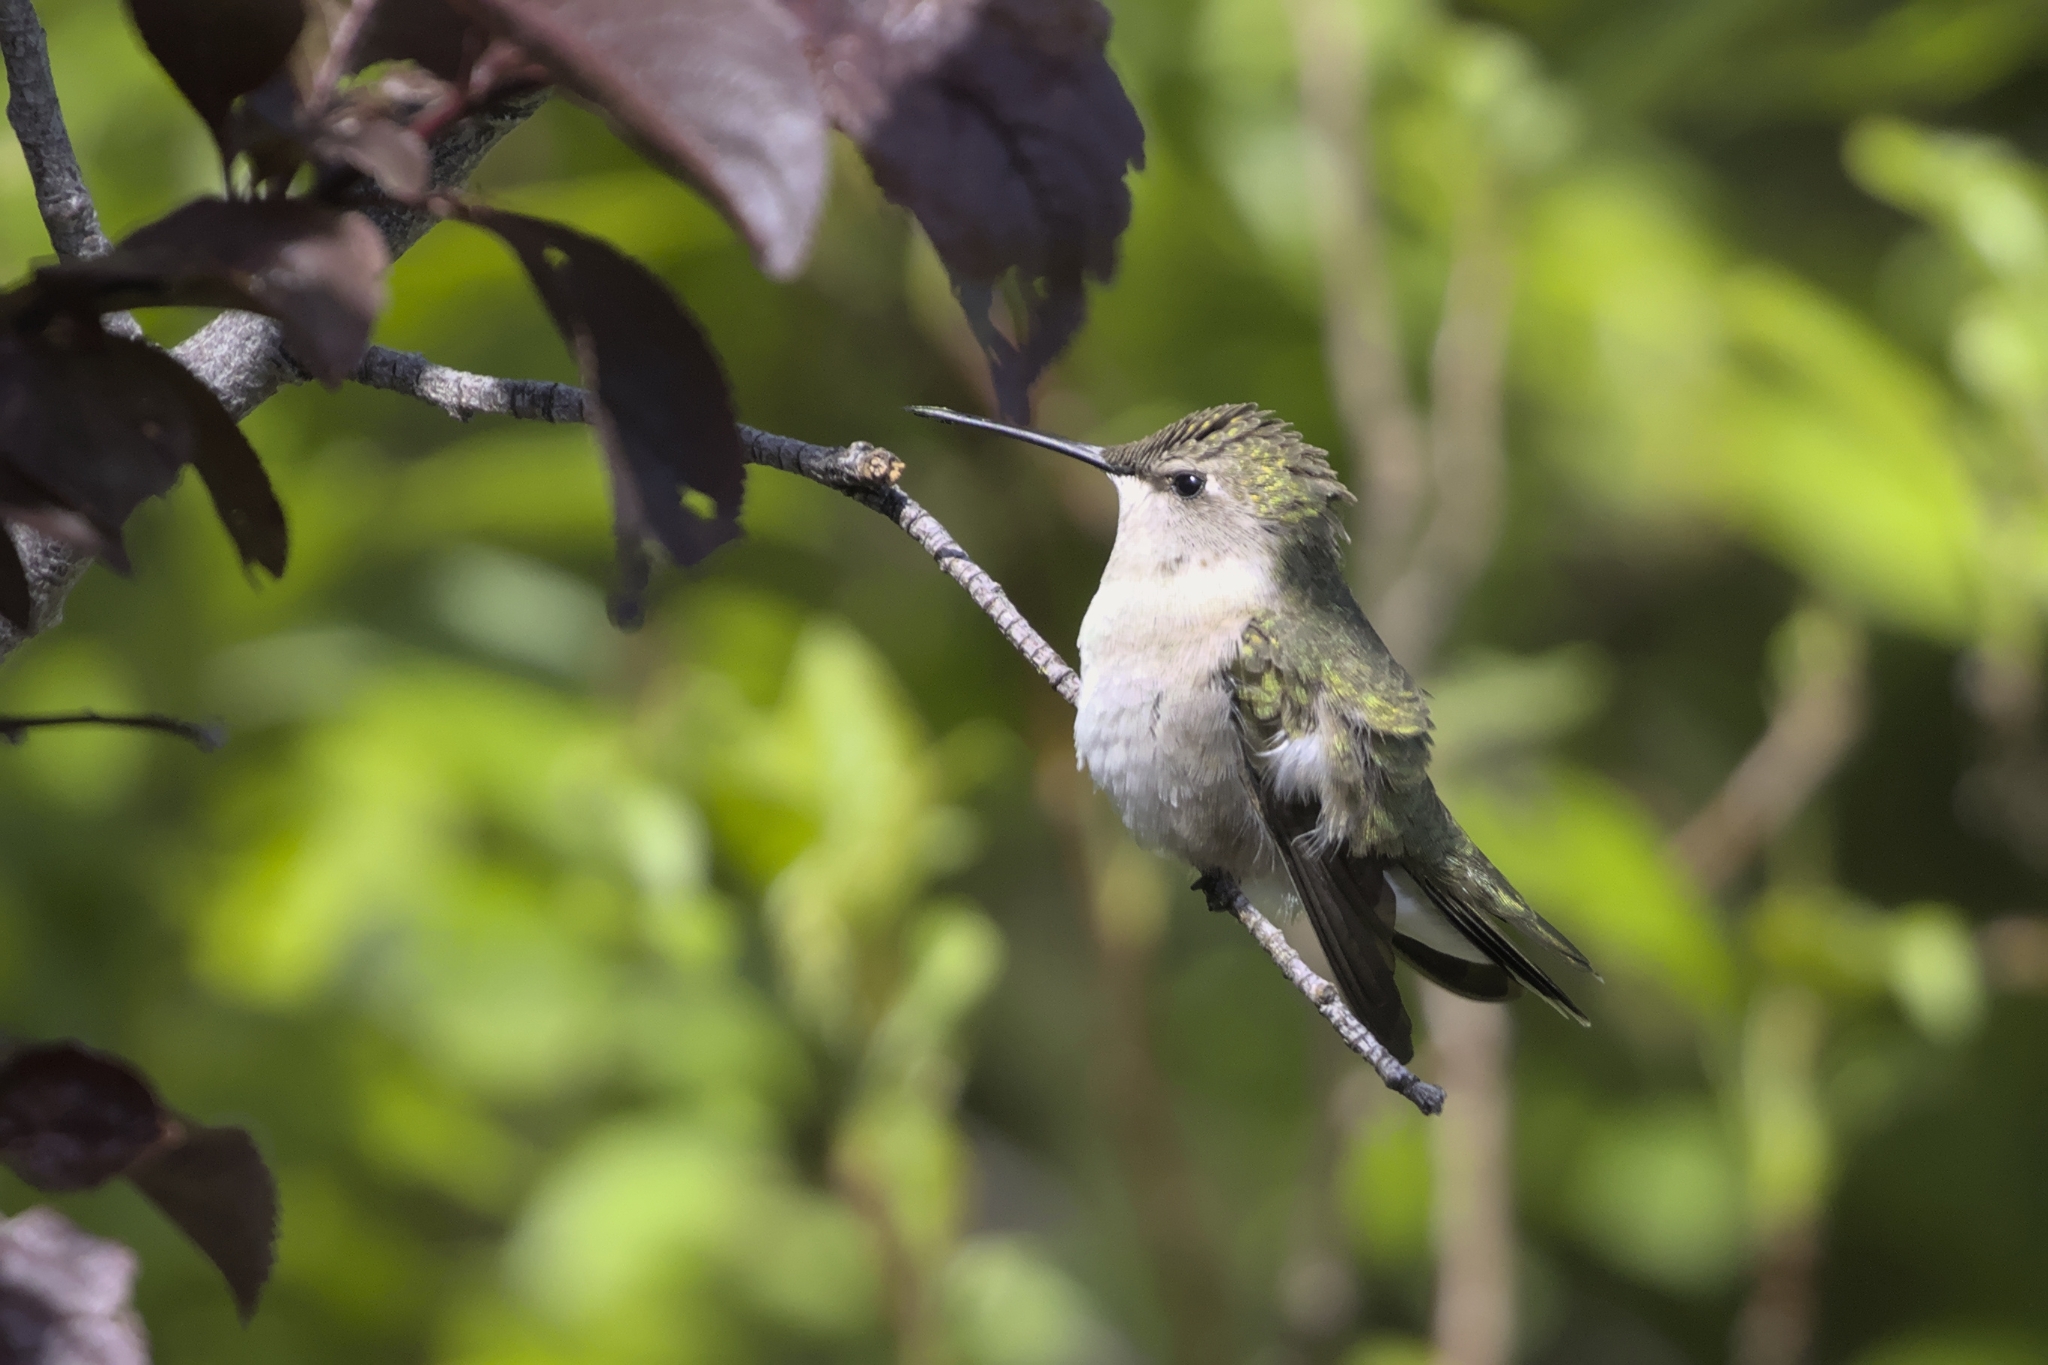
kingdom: Animalia
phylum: Chordata
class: Aves
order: Apodiformes
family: Trochilidae
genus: Archilochus
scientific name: Archilochus alexandri
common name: Black-chinned hummingbird
